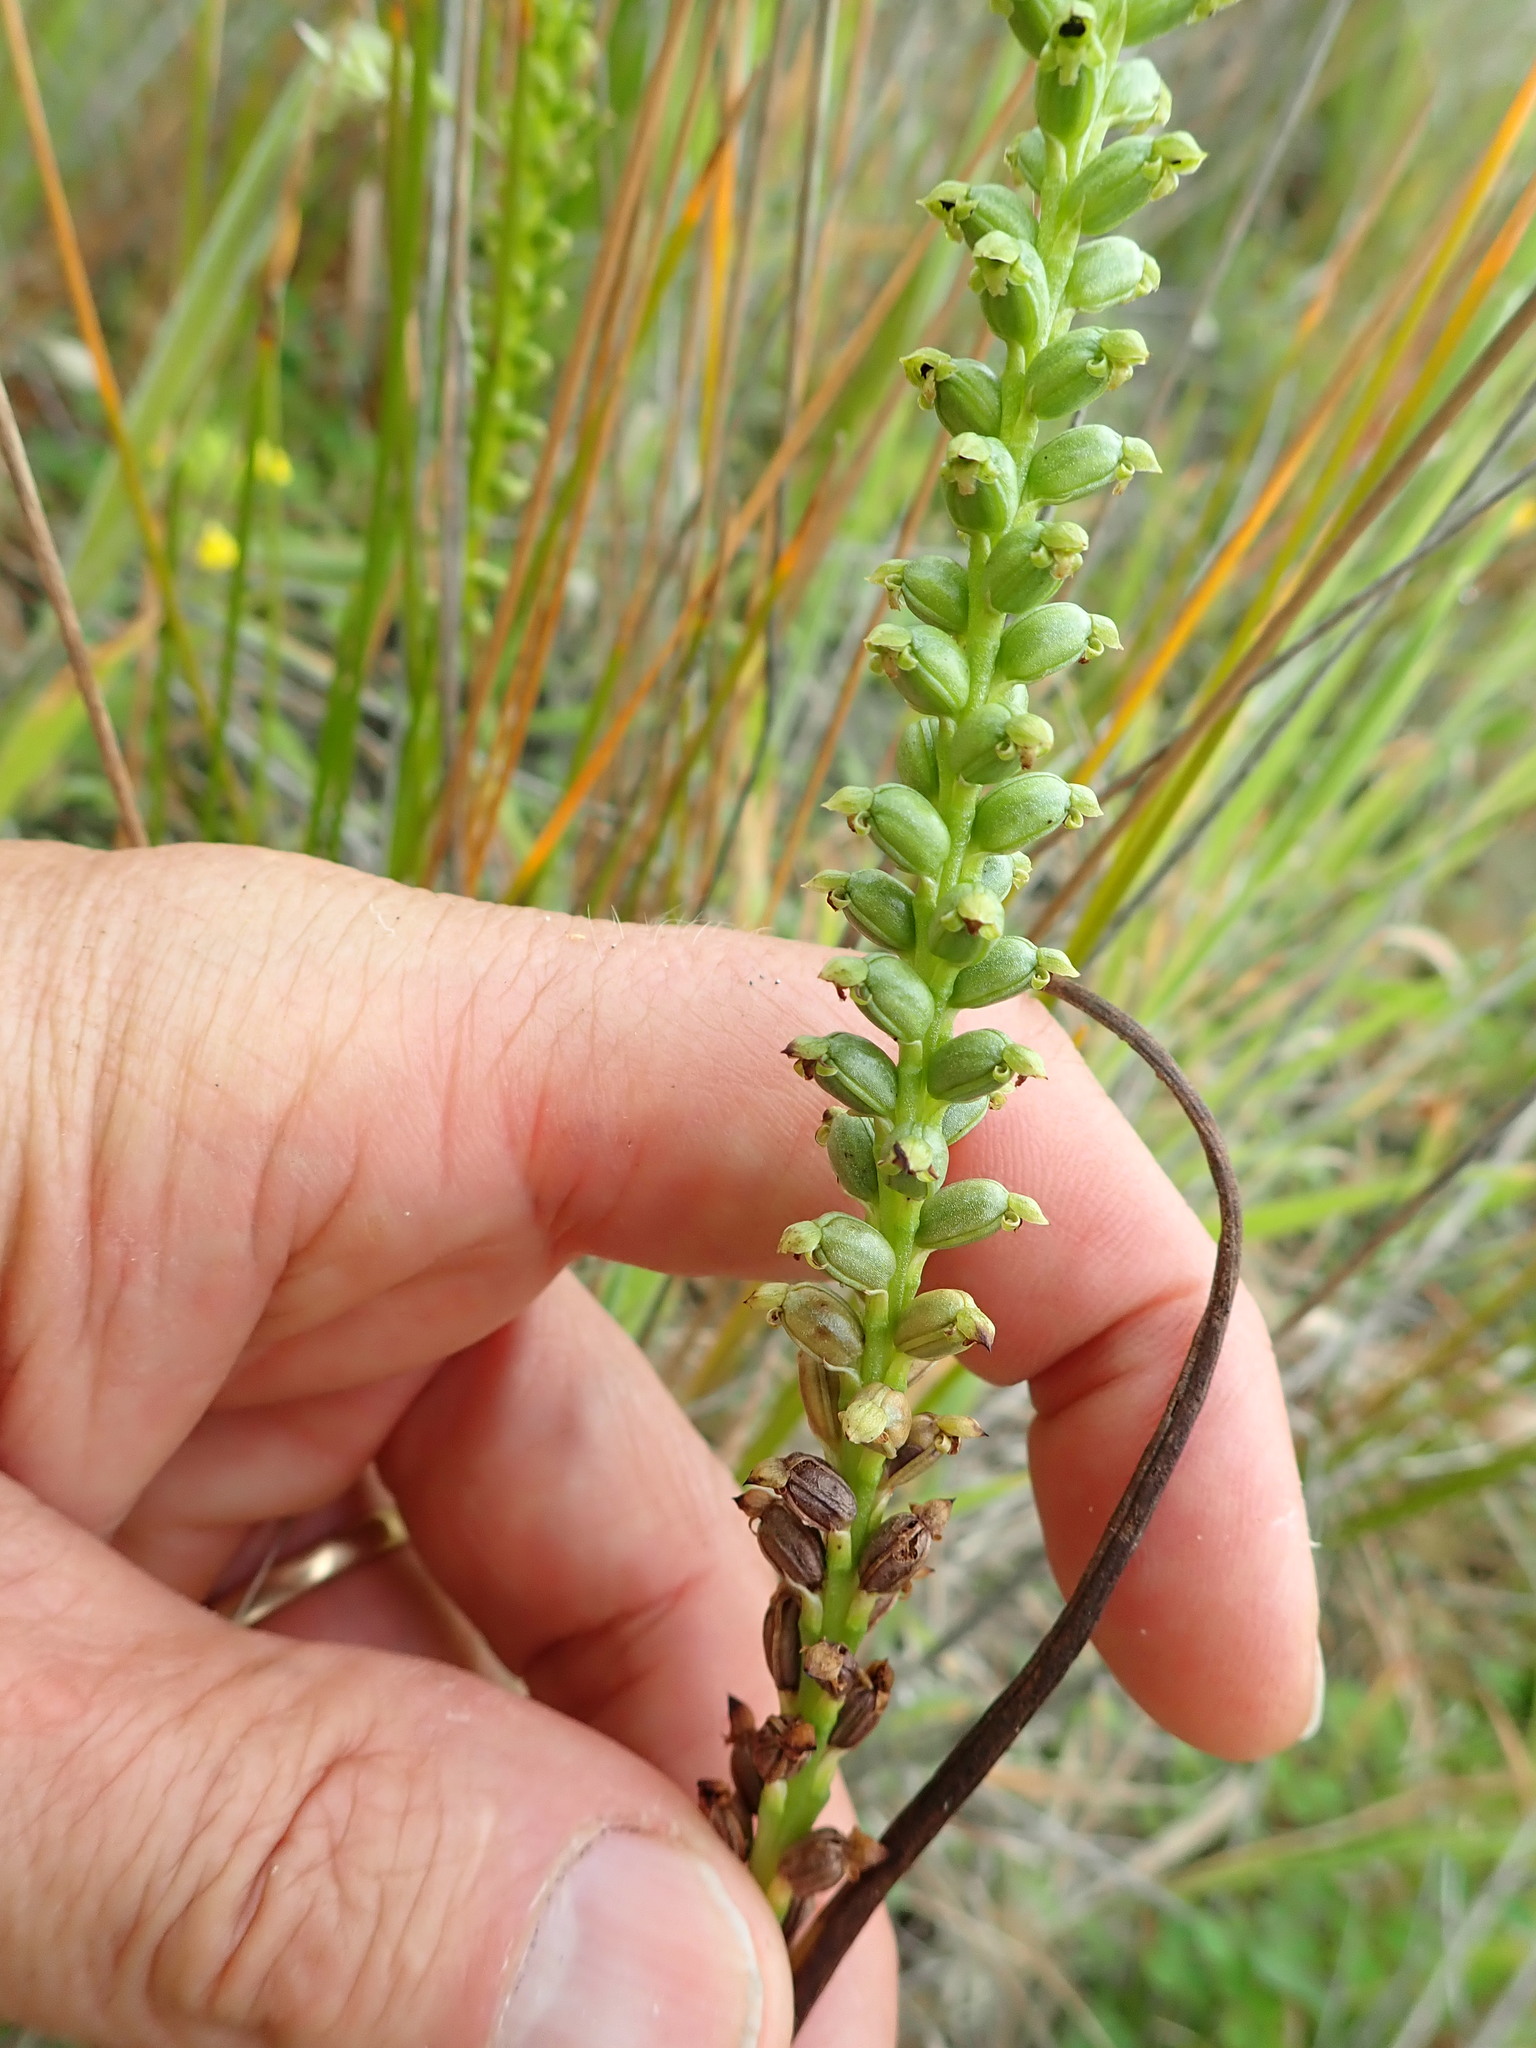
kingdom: Plantae
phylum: Tracheophyta
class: Liliopsida
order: Asparagales
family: Orchidaceae
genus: Microtis
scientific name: Microtis unifolia
